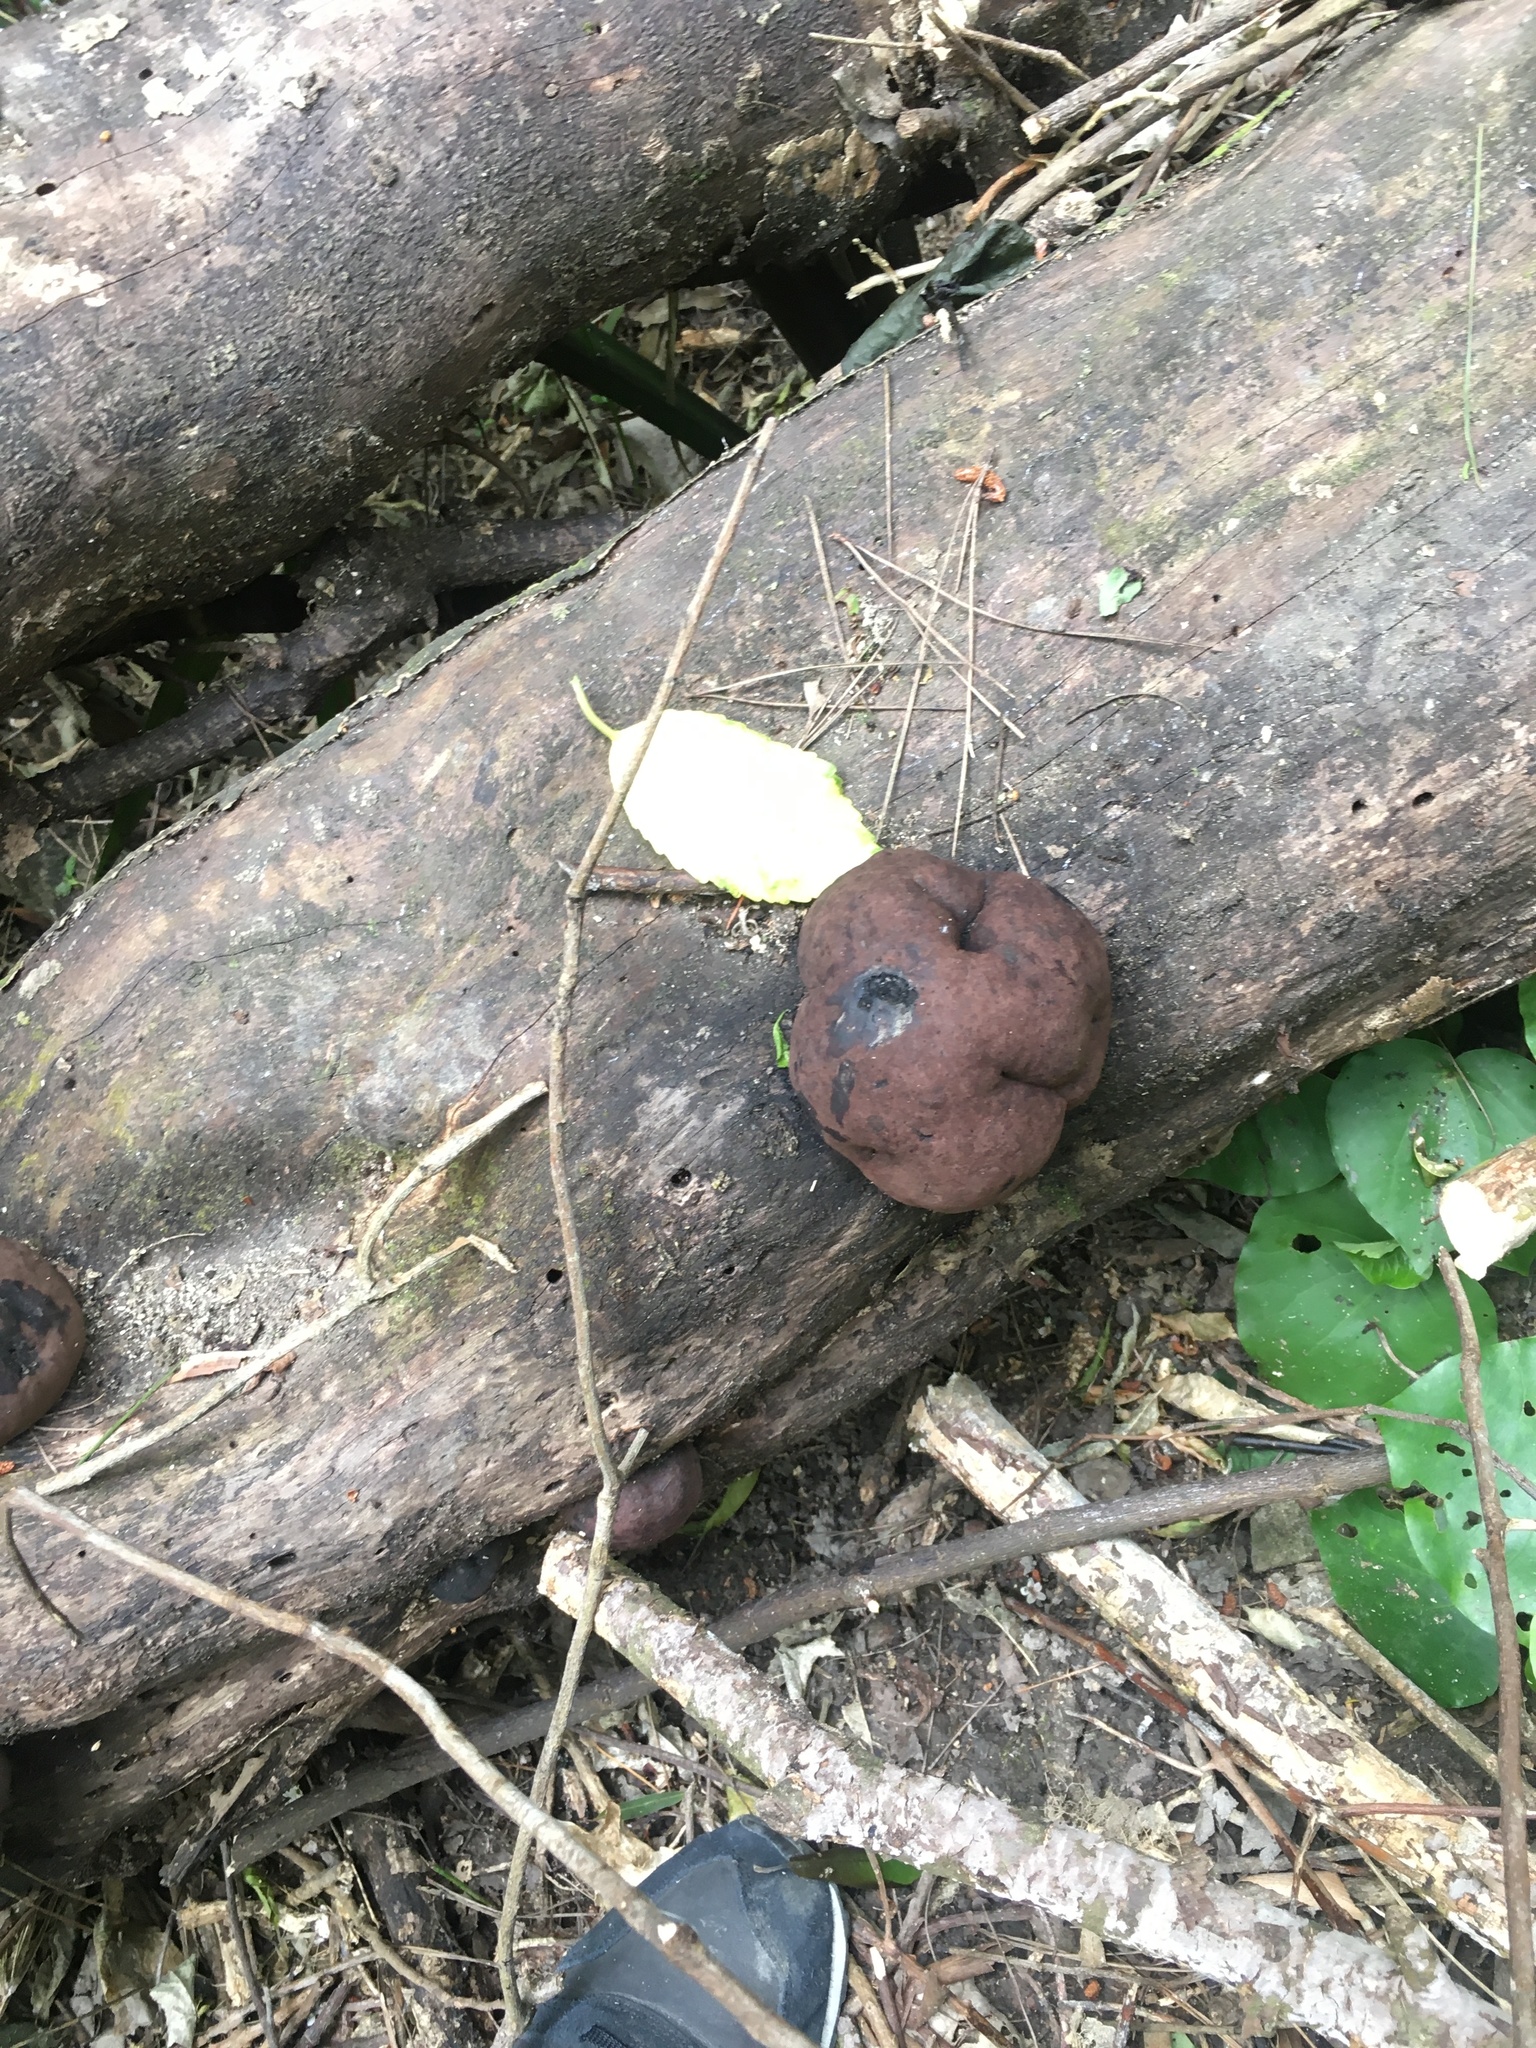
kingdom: Fungi
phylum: Ascomycota
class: Sordariomycetes
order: Xylariales
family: Hypoxylaceae
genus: Daldinia
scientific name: Daldinia
